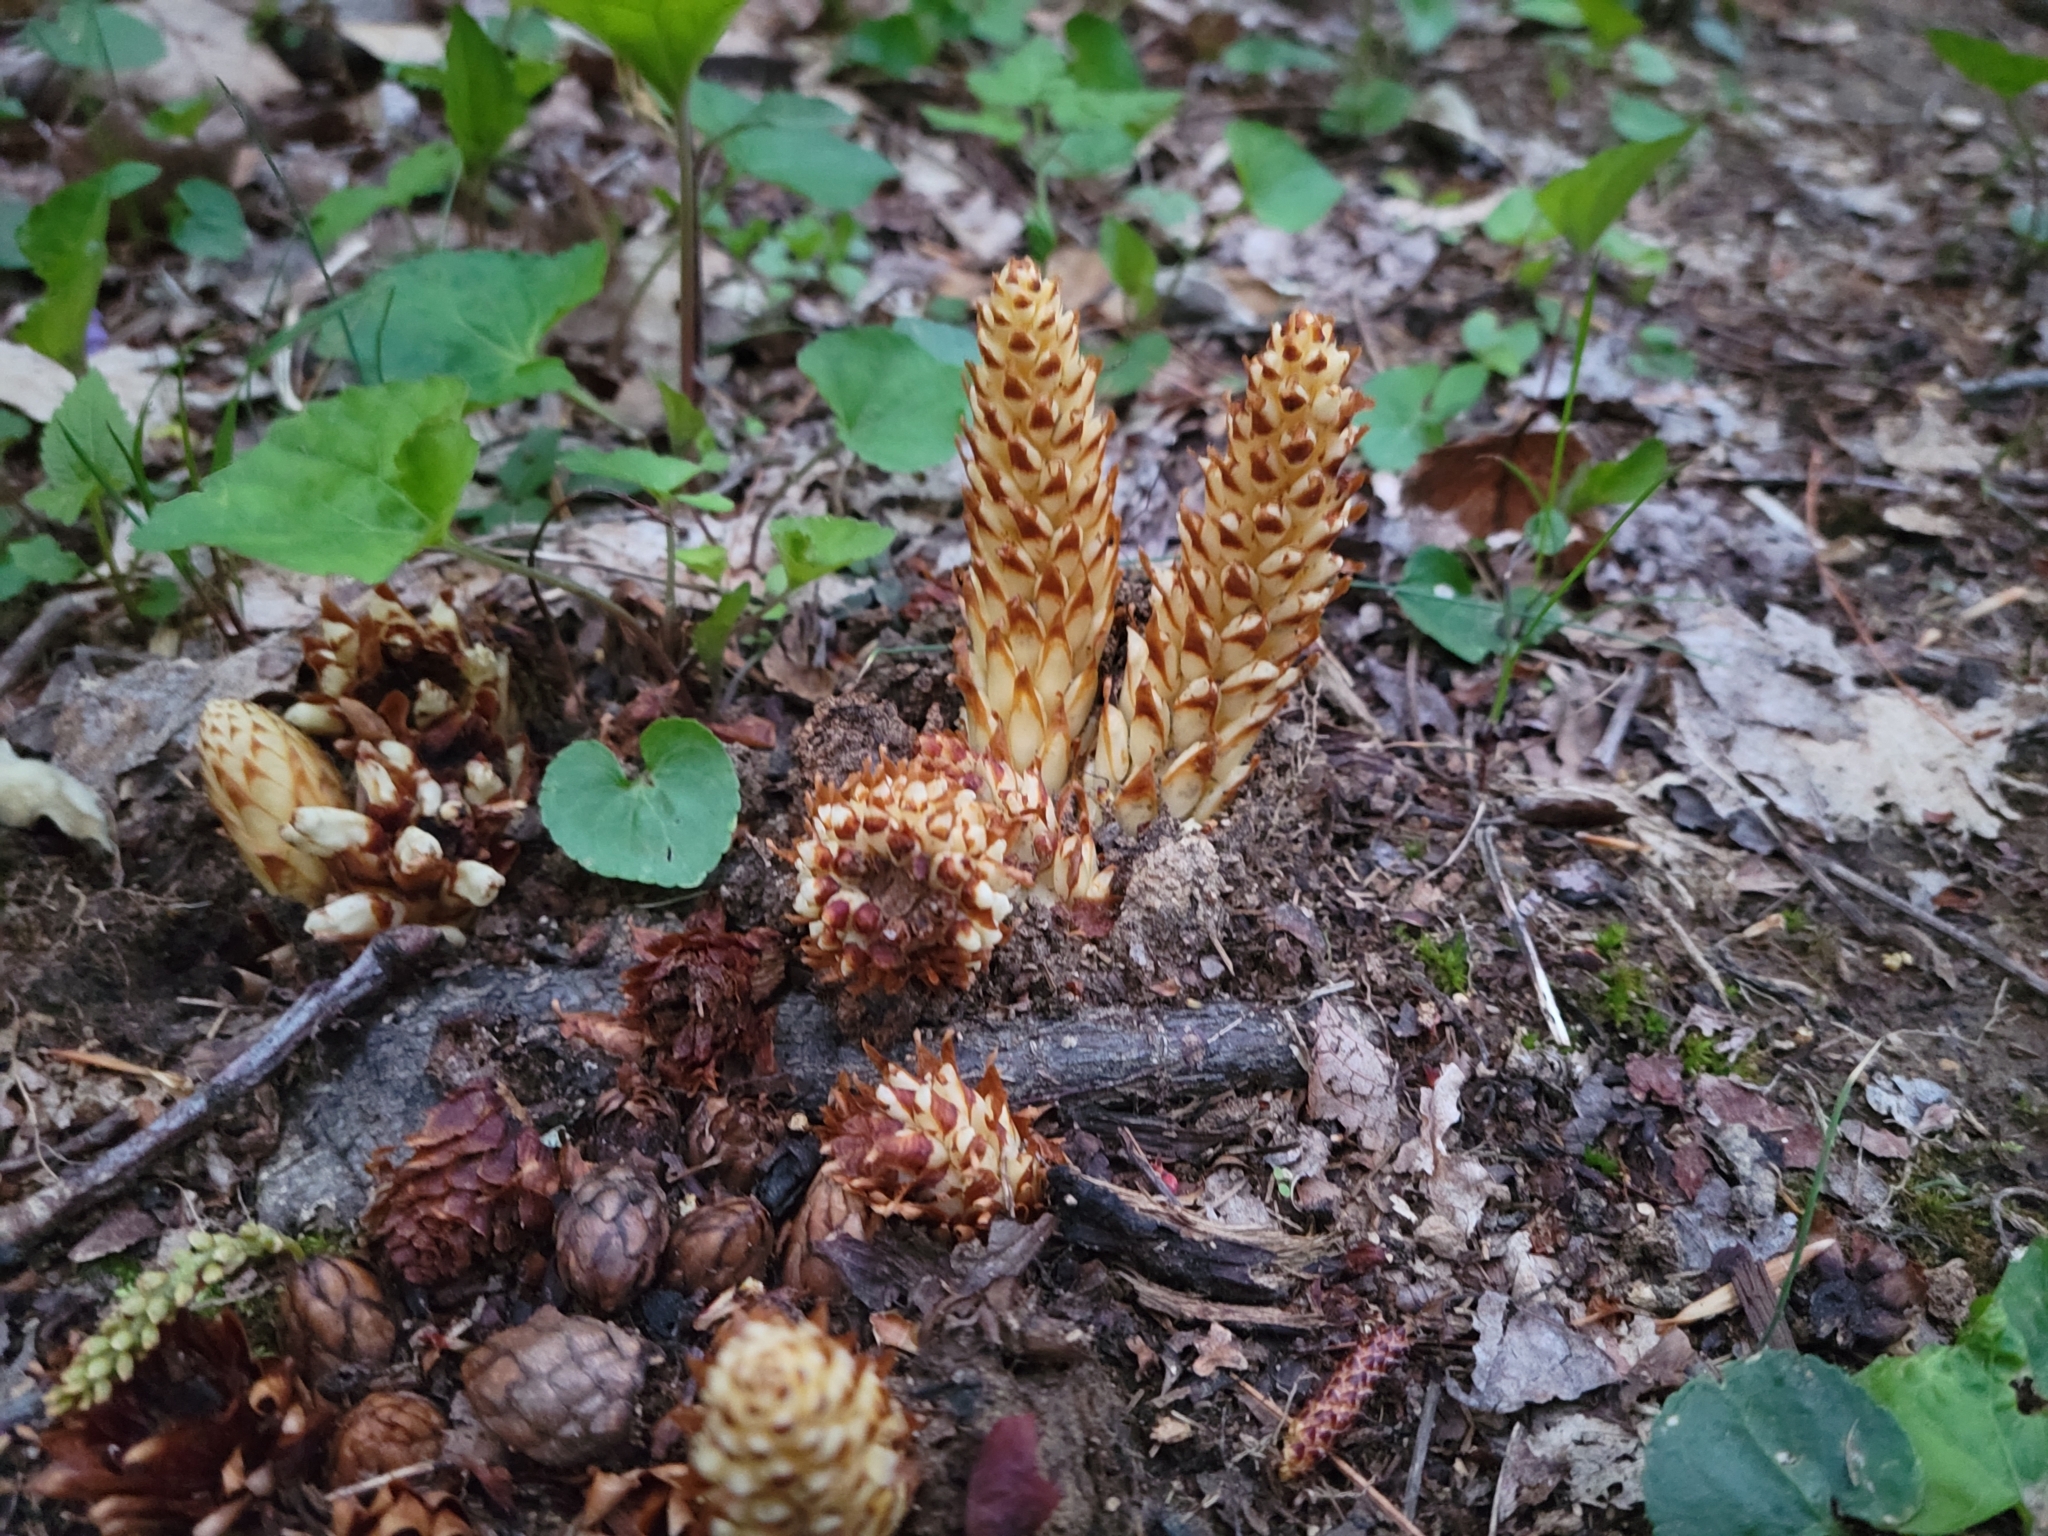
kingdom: Plantae
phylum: Tracheophyta
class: Magnoliopsida
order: Lamiales
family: Orobanchaceae
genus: Conopholis
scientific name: Conopholis americana
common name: American cancer-root
